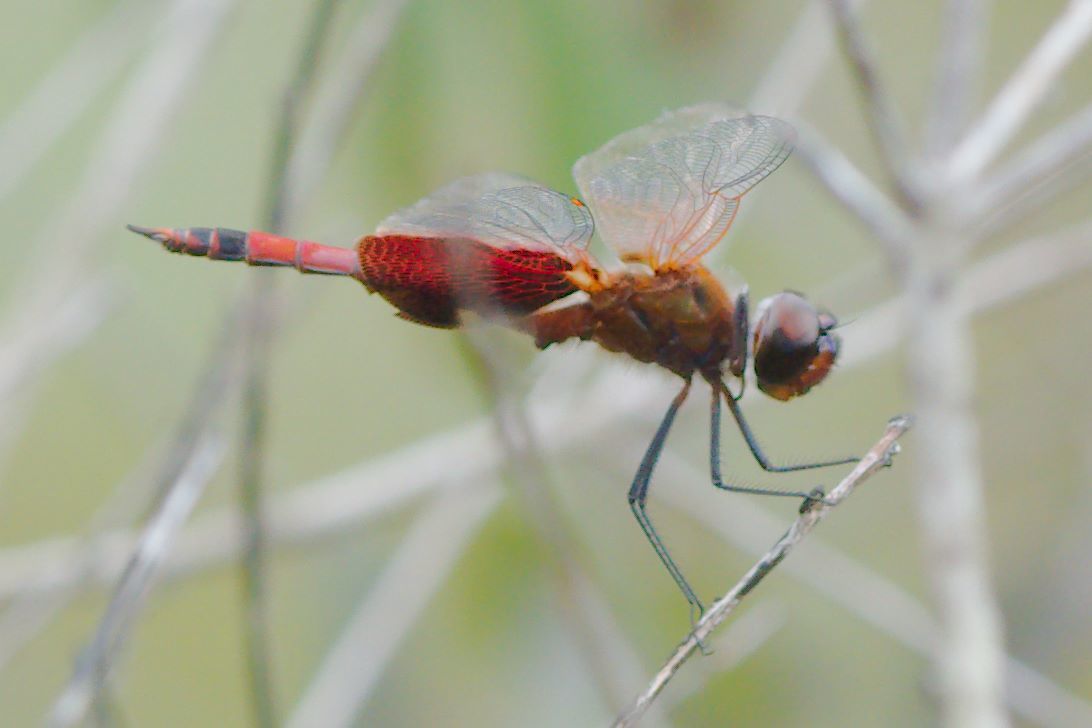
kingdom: Animalia
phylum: Arthropoda
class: Insecta
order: Odonata
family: Libellulidae
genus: Tramea
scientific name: Tramea carolina
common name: Carolina saddlebags
